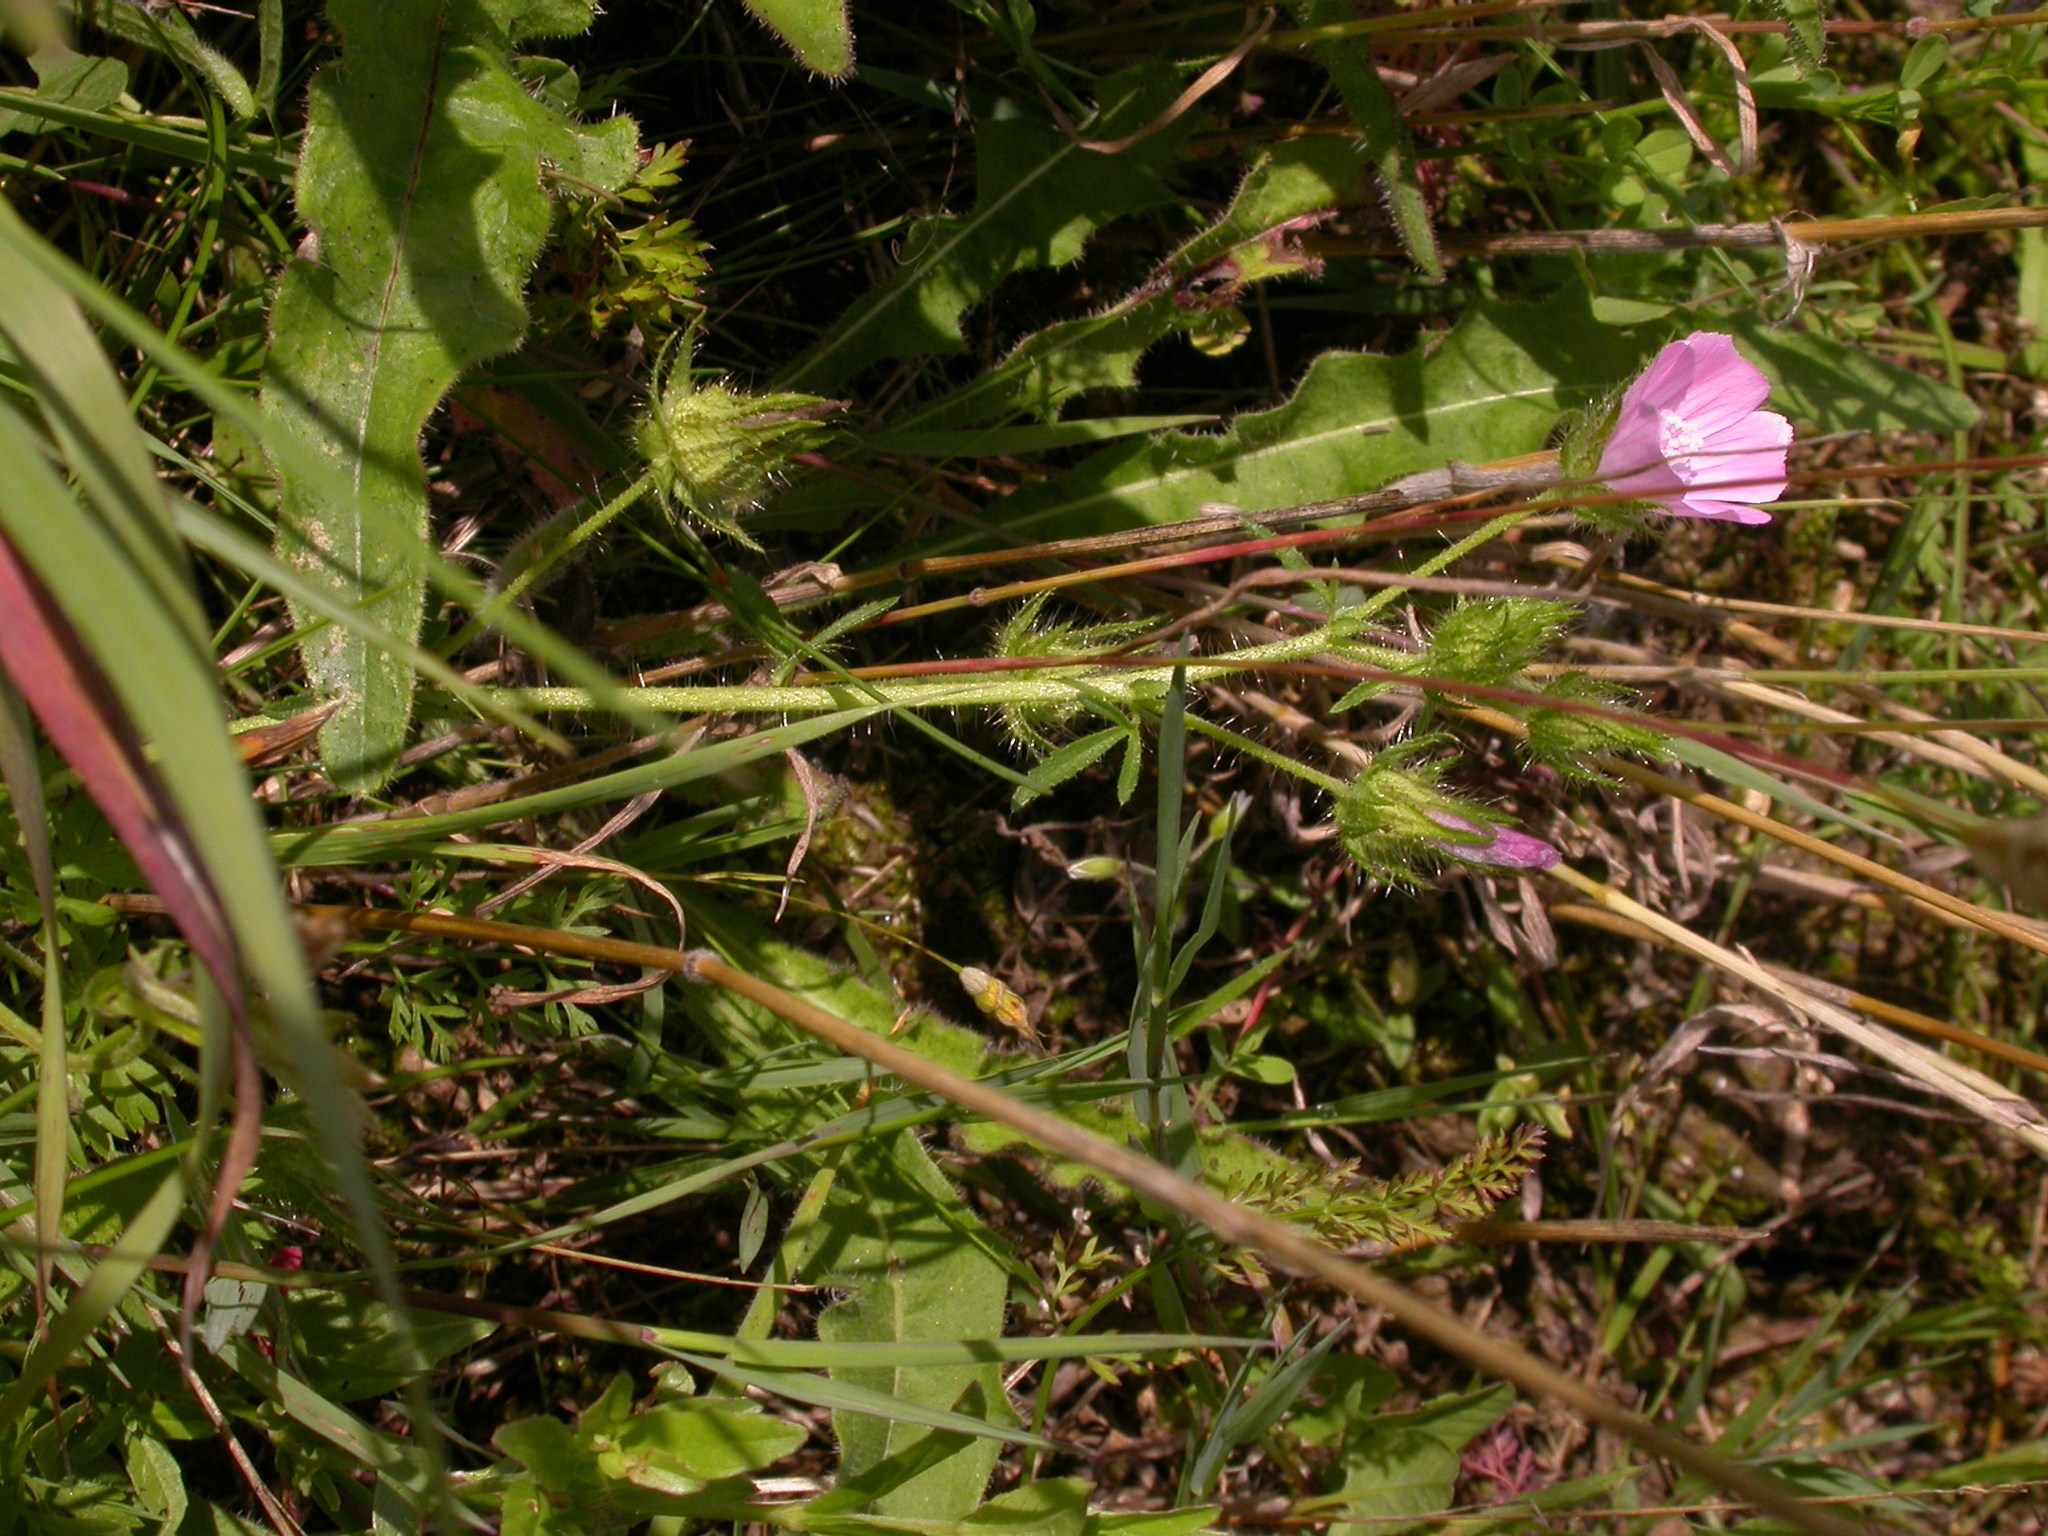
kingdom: Plantae
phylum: Tracheophyta
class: Magnoliopsida
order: Malvales
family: Malvaceae
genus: Althaea
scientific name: Althaea hirsuta
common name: Rough marsh-mallow
